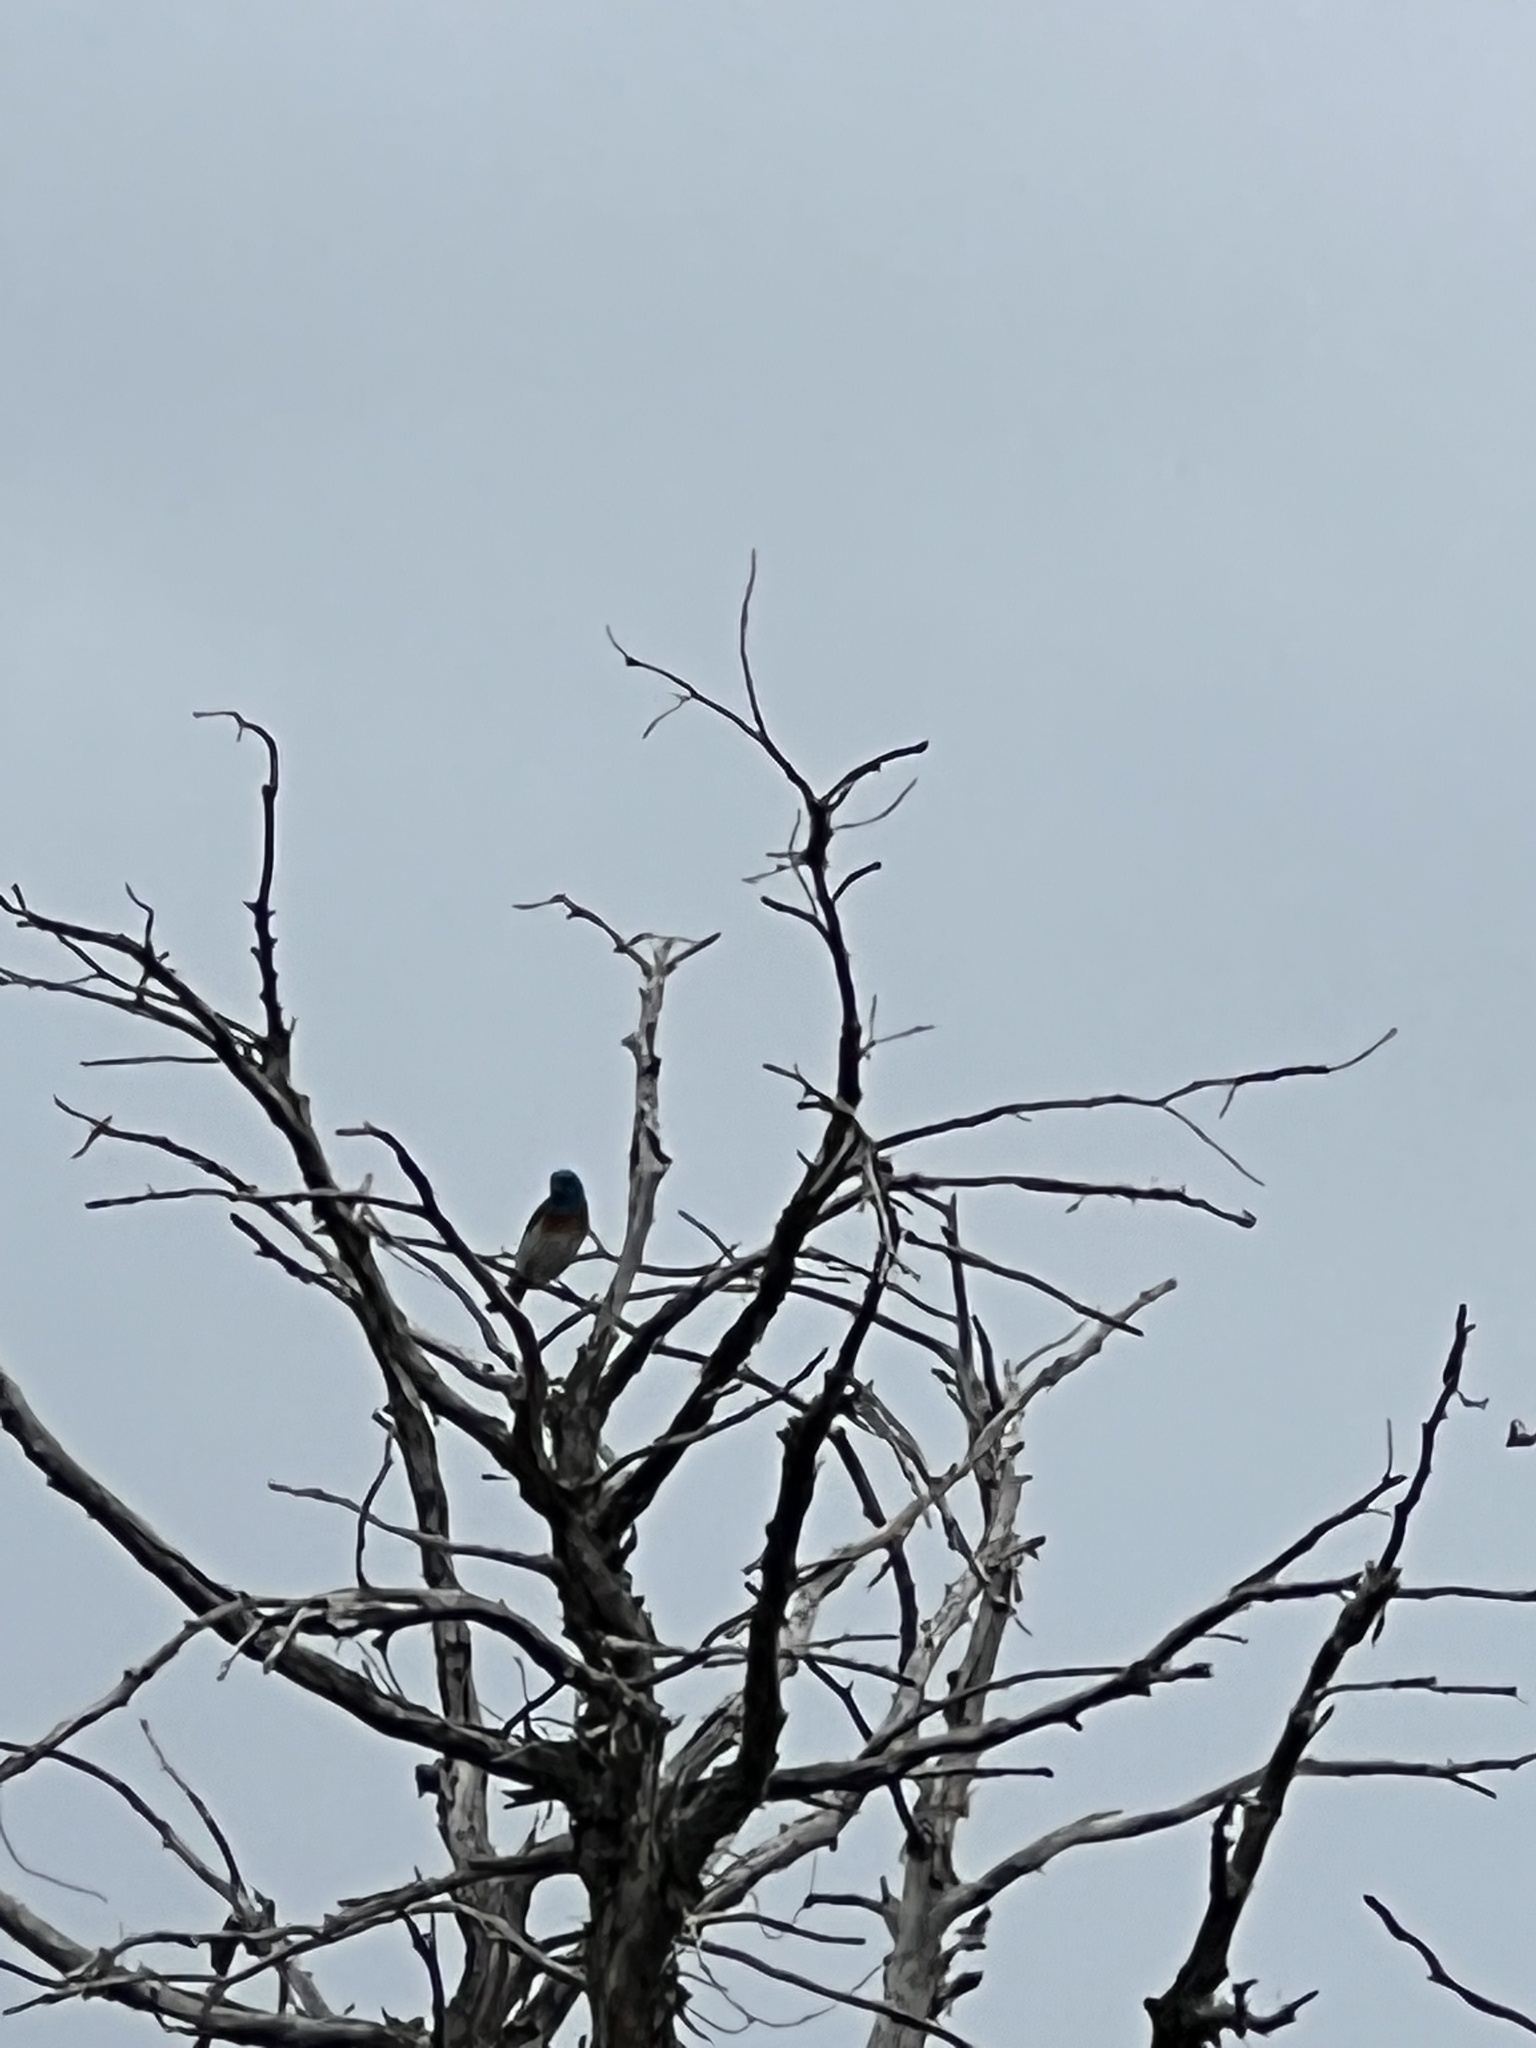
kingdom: Animalia
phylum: Chordata
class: Aves
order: Passeriformes
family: Cardinalidae
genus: Passerina
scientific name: Passerina amoena
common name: Lazuli bunting
